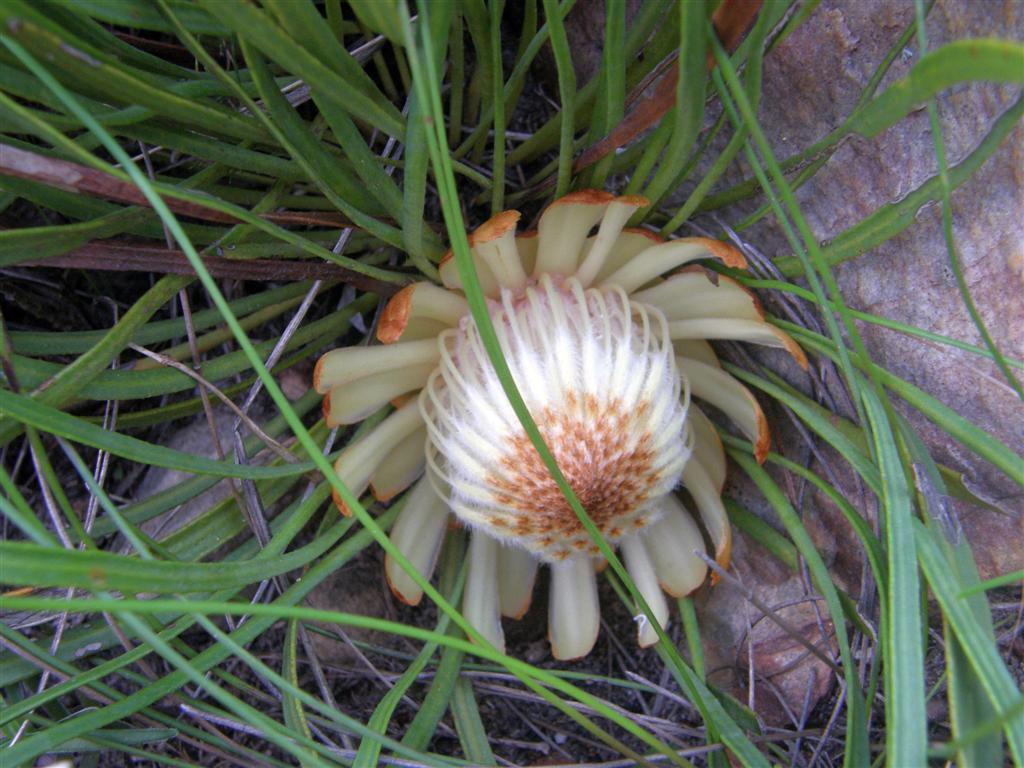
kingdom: Plantae
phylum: Tracheophyta
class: Magnoliopsida
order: Proteales
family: Proteaceae
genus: Protea
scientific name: Protea scabra
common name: Sandpaper-leaf sugarbush
